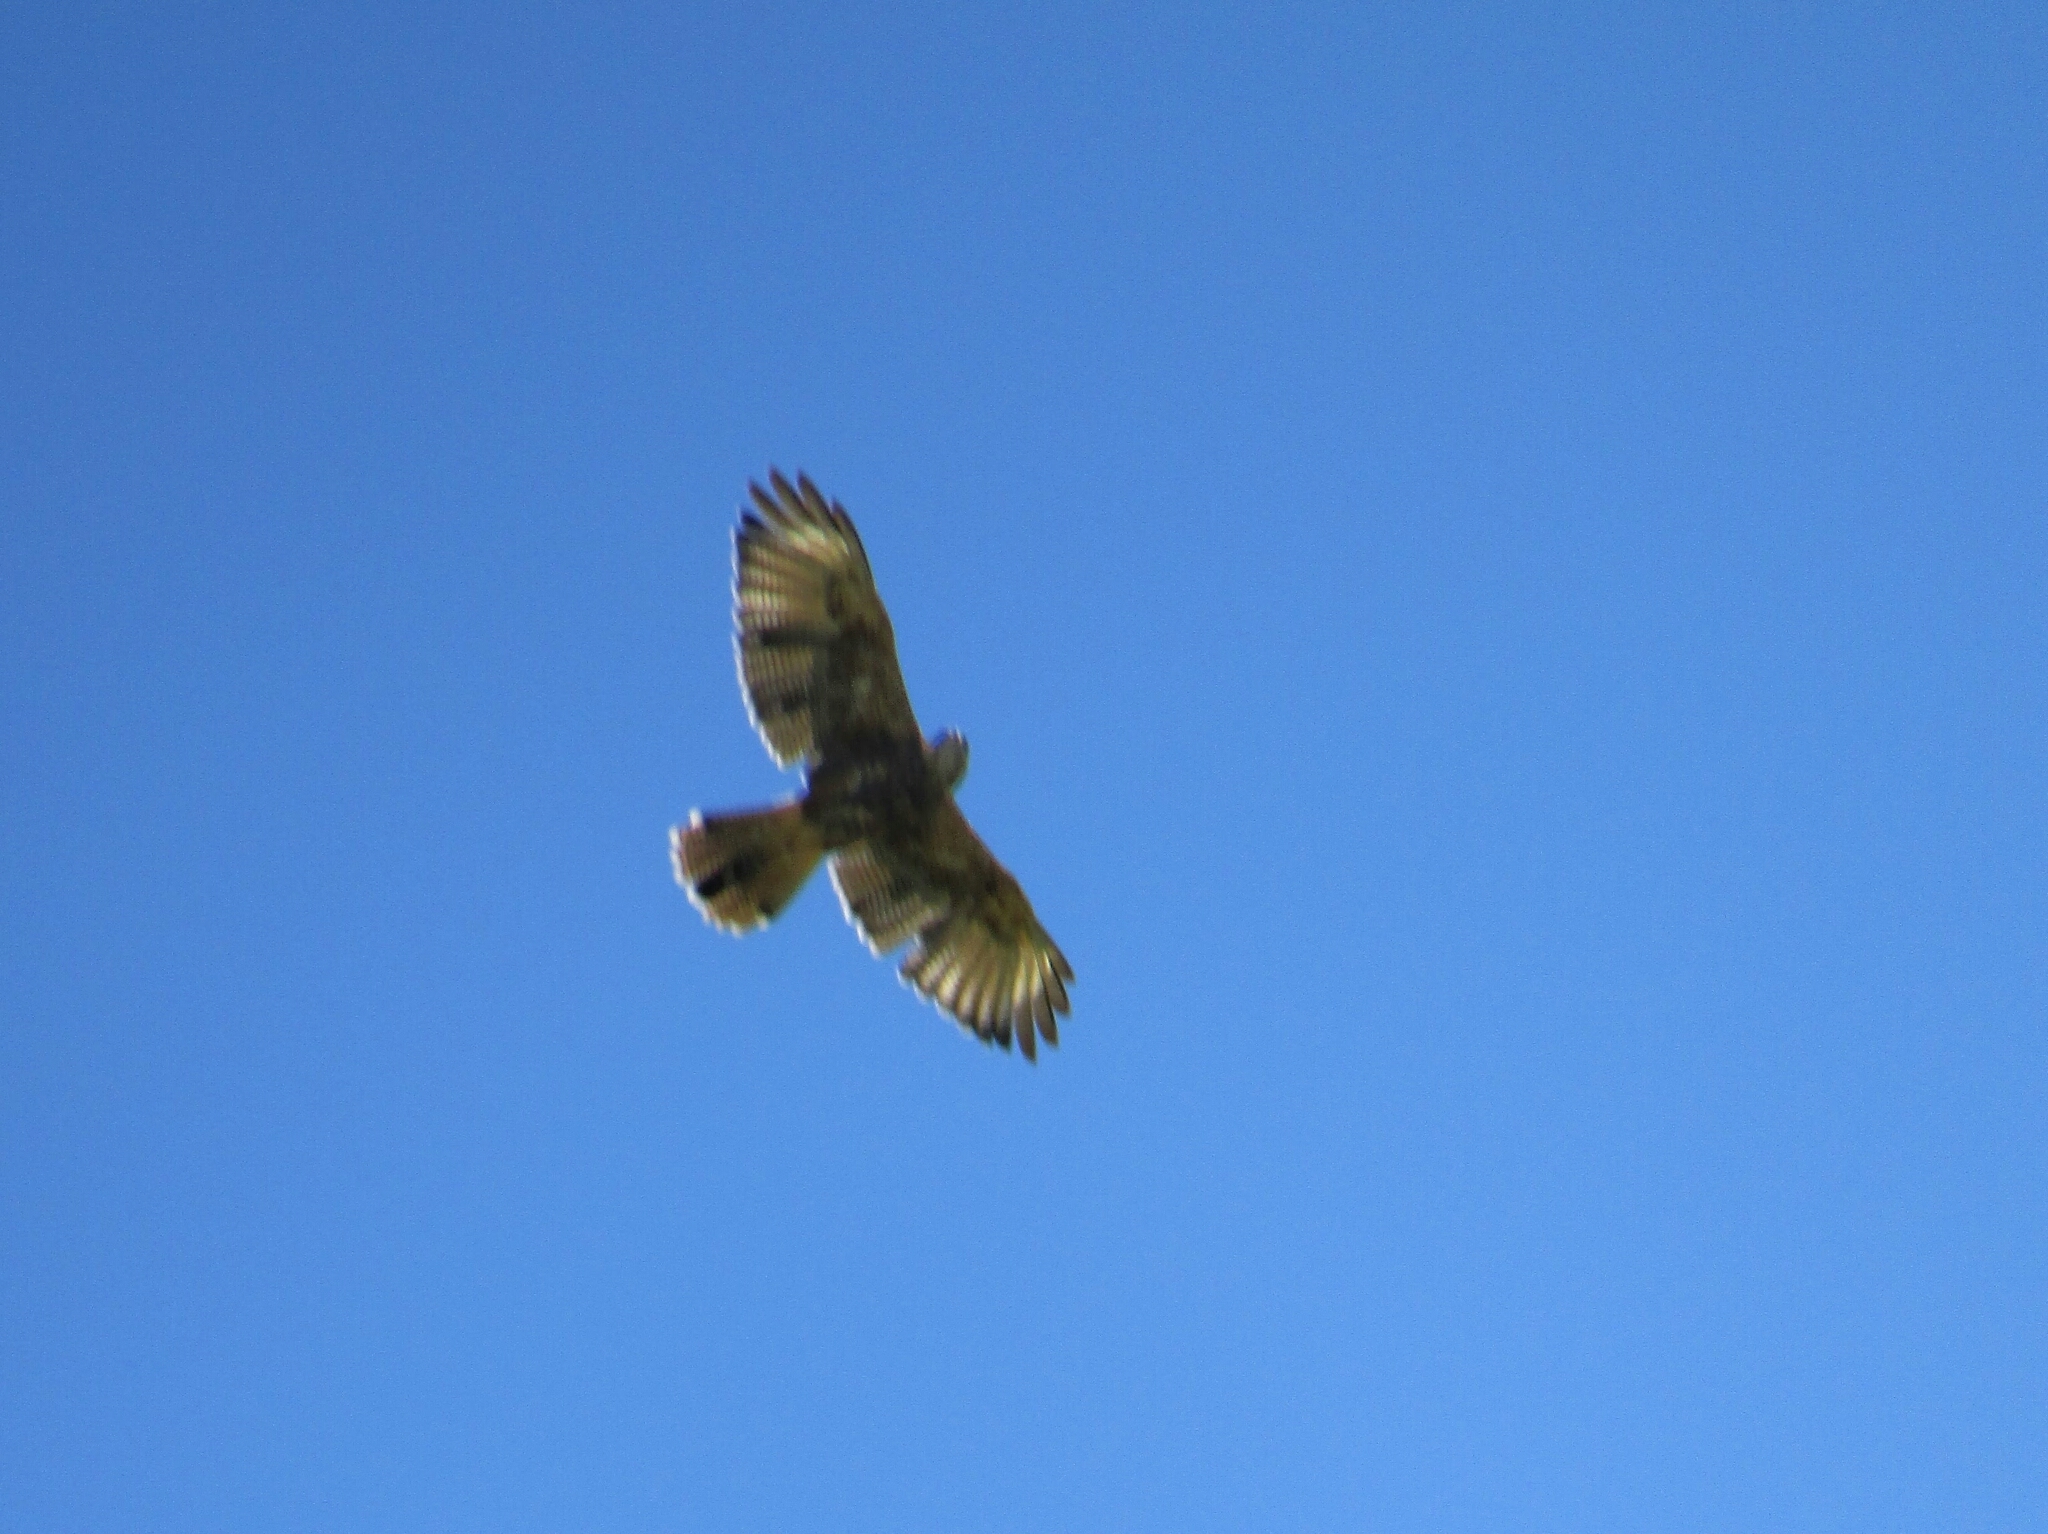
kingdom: Animalia
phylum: Chordata
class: Aves
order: Accipitriformes
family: Accipitridae
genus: Parabuteo
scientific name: Parabuteo unicinctus
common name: Harris's hawk
